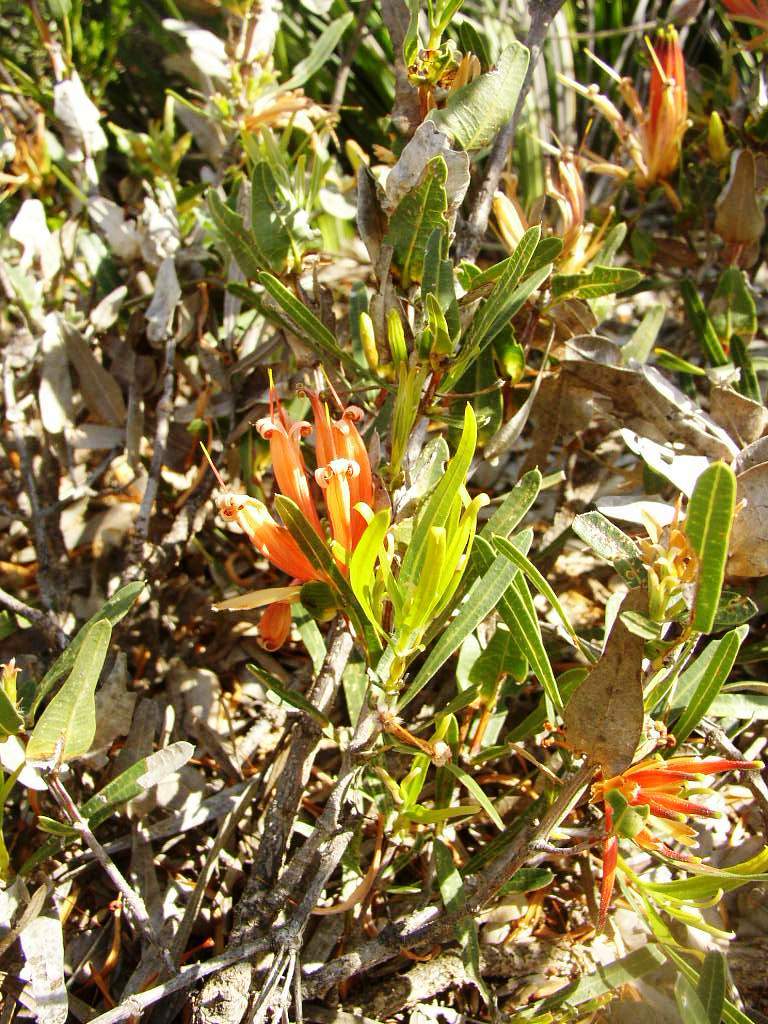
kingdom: Plantae
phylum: Tracheophyta
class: Magnoliopsida
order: Proteales
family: Proteaceae
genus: Lambertia
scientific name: Lambertia multiflora
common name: Many-flowered honeysuckle
